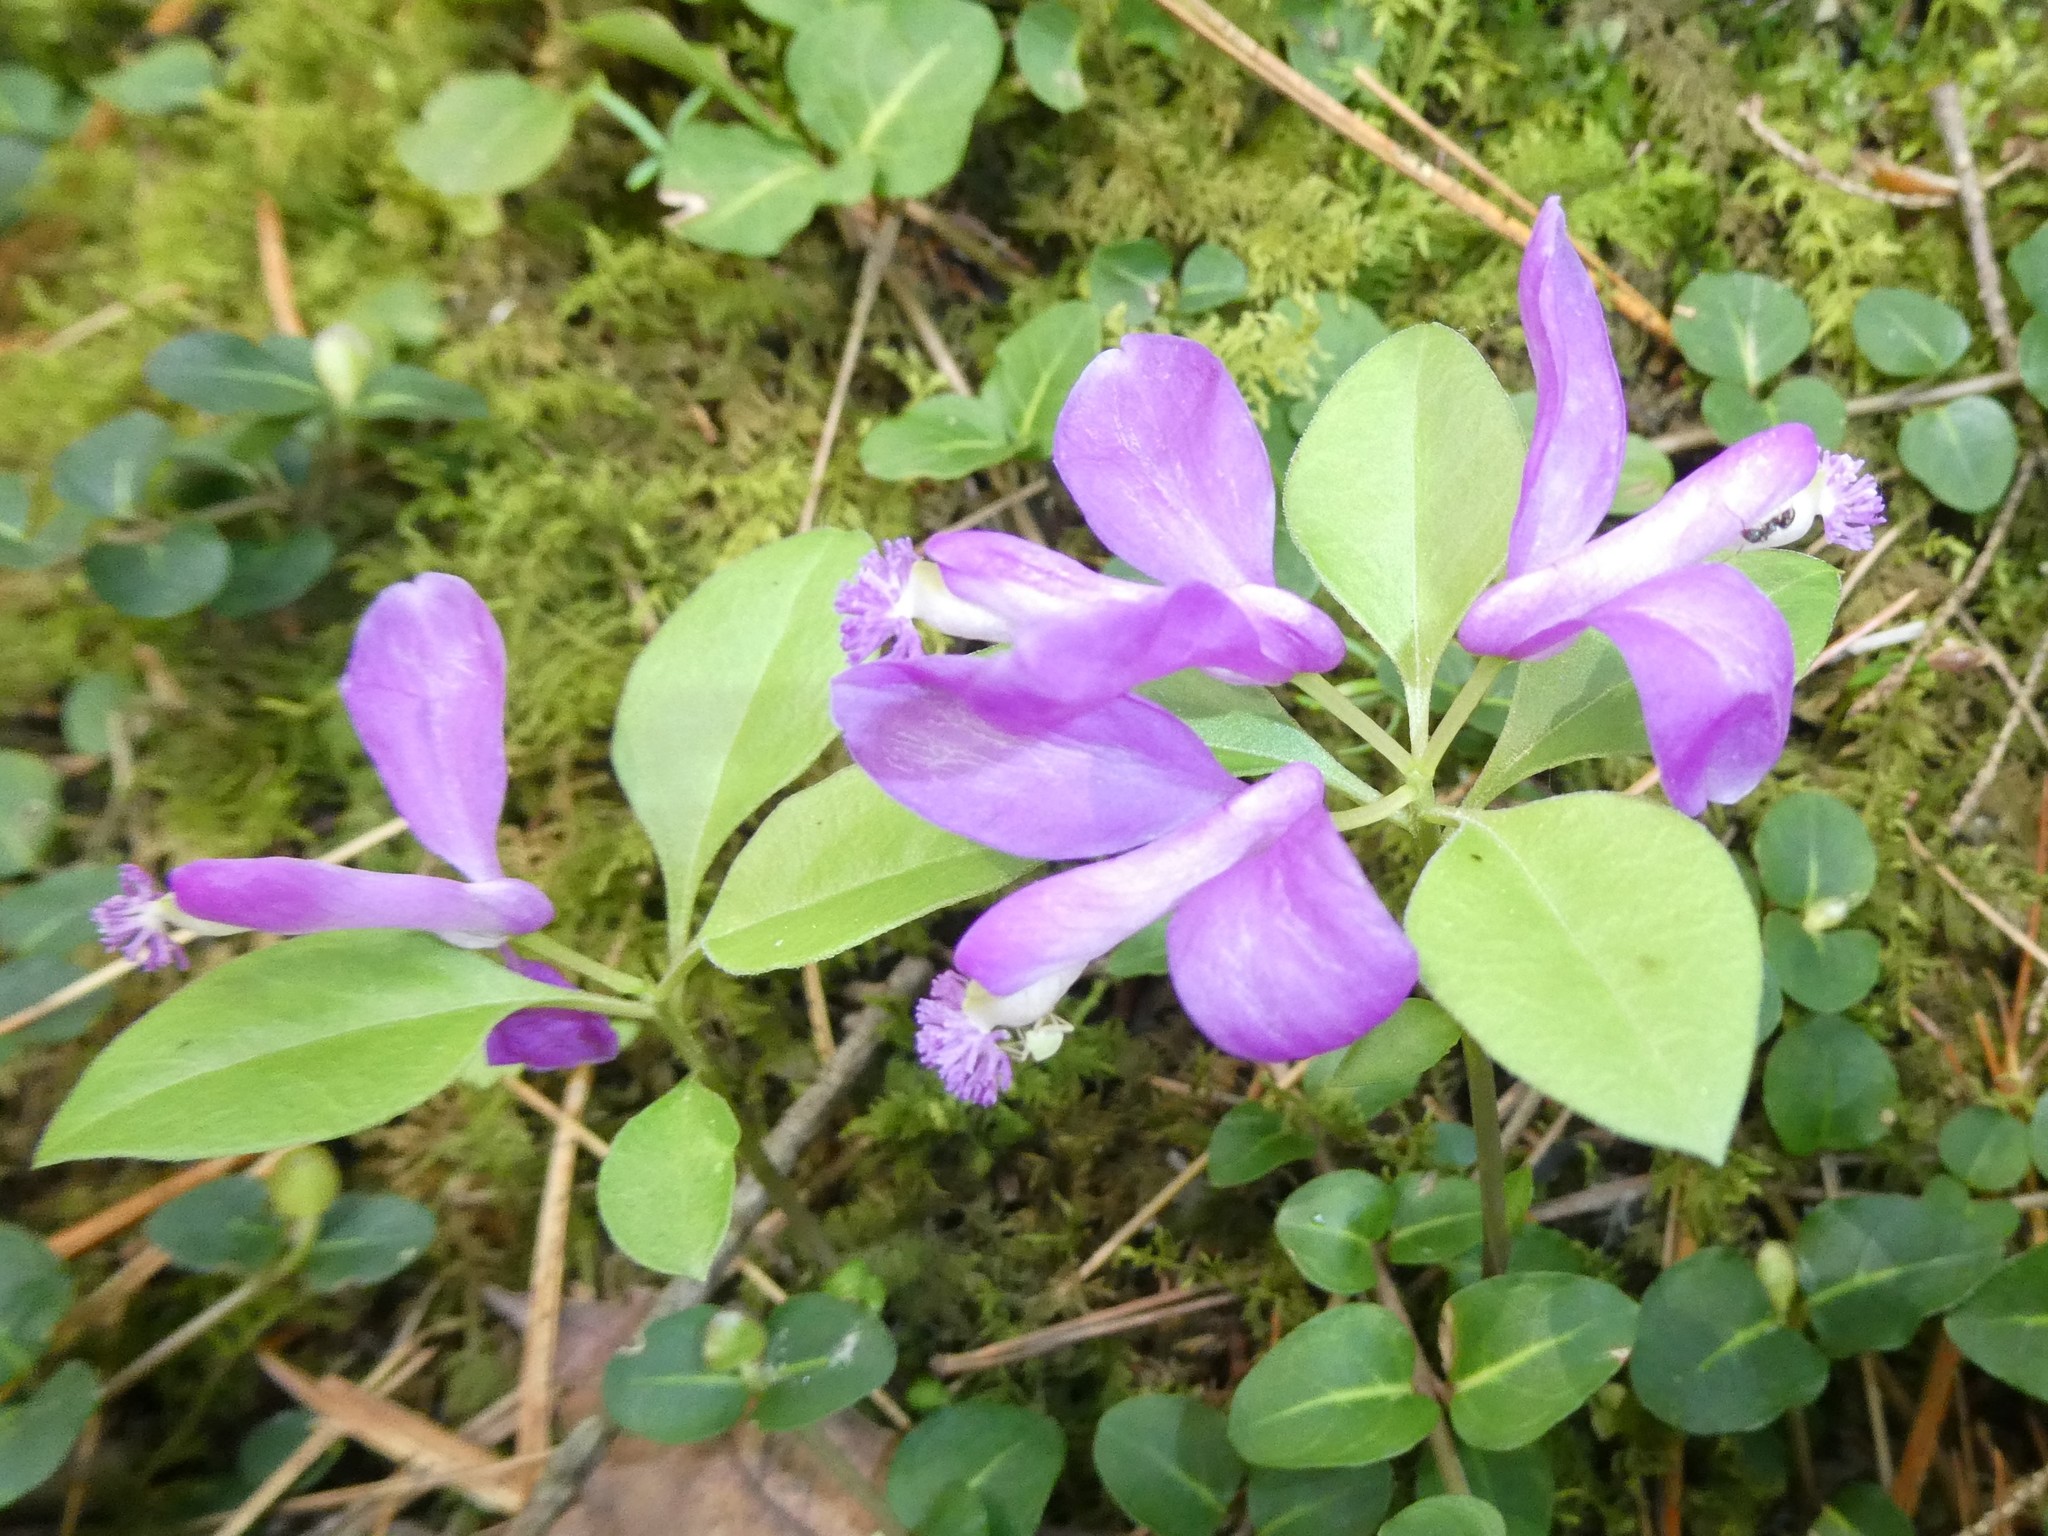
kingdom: Plantae
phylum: Tracheophyta
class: Magnoliopsida
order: Fabales
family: Polygalaceae
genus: Polygaloides
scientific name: Polygaloides paucifolia
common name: Bird-on-the-wing
